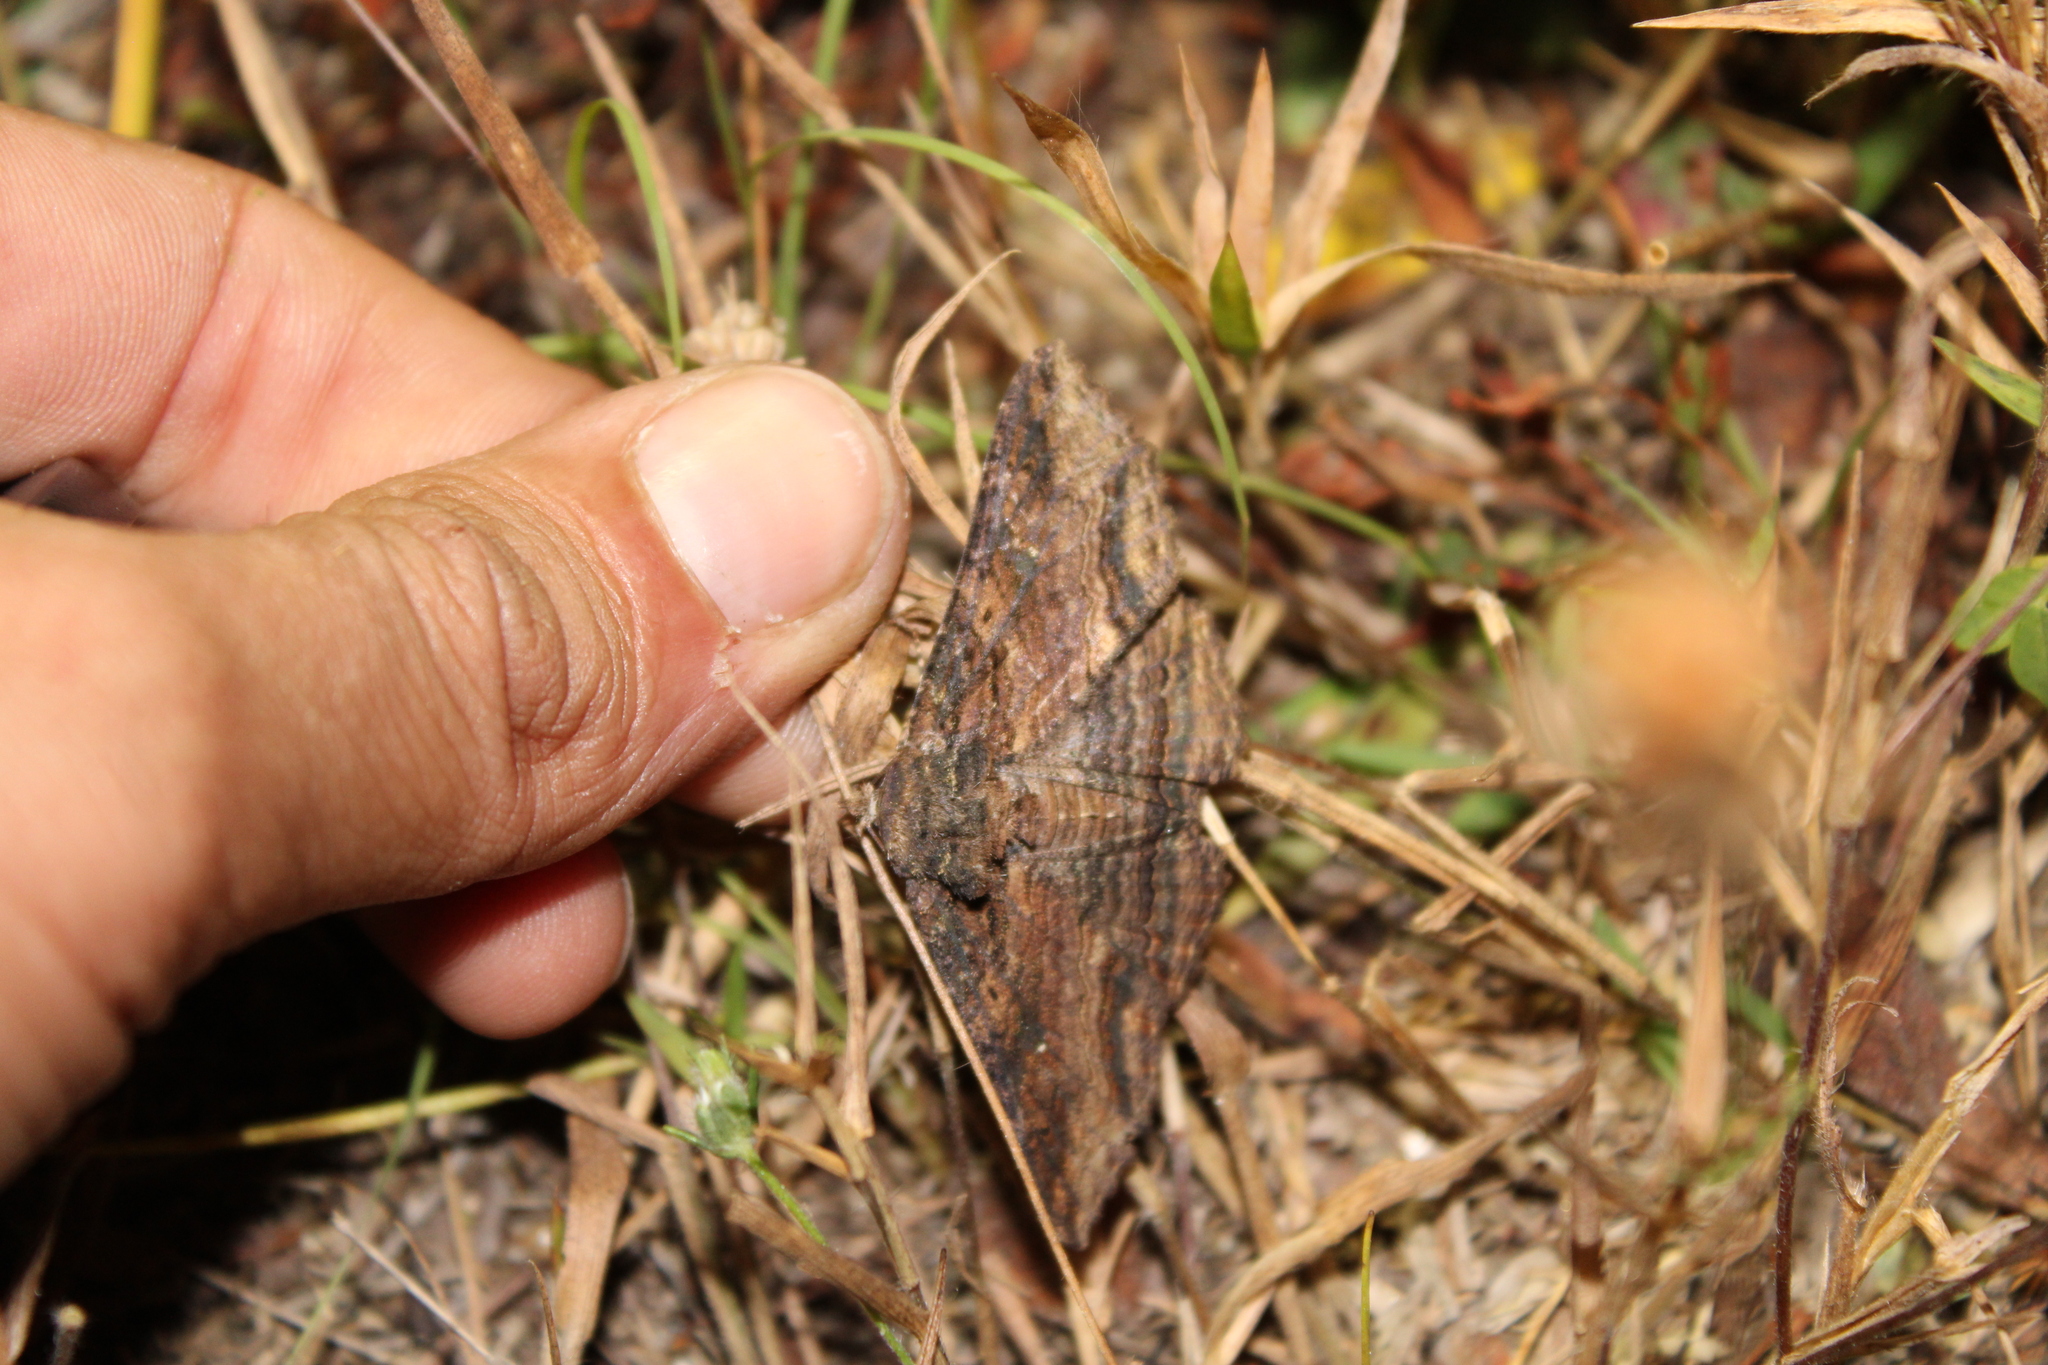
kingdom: Animalia
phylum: Arthropoda
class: Insecta
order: Lepidoptera
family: Erebidae
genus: Zale
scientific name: Zale lunata
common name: Lunate zale moth
